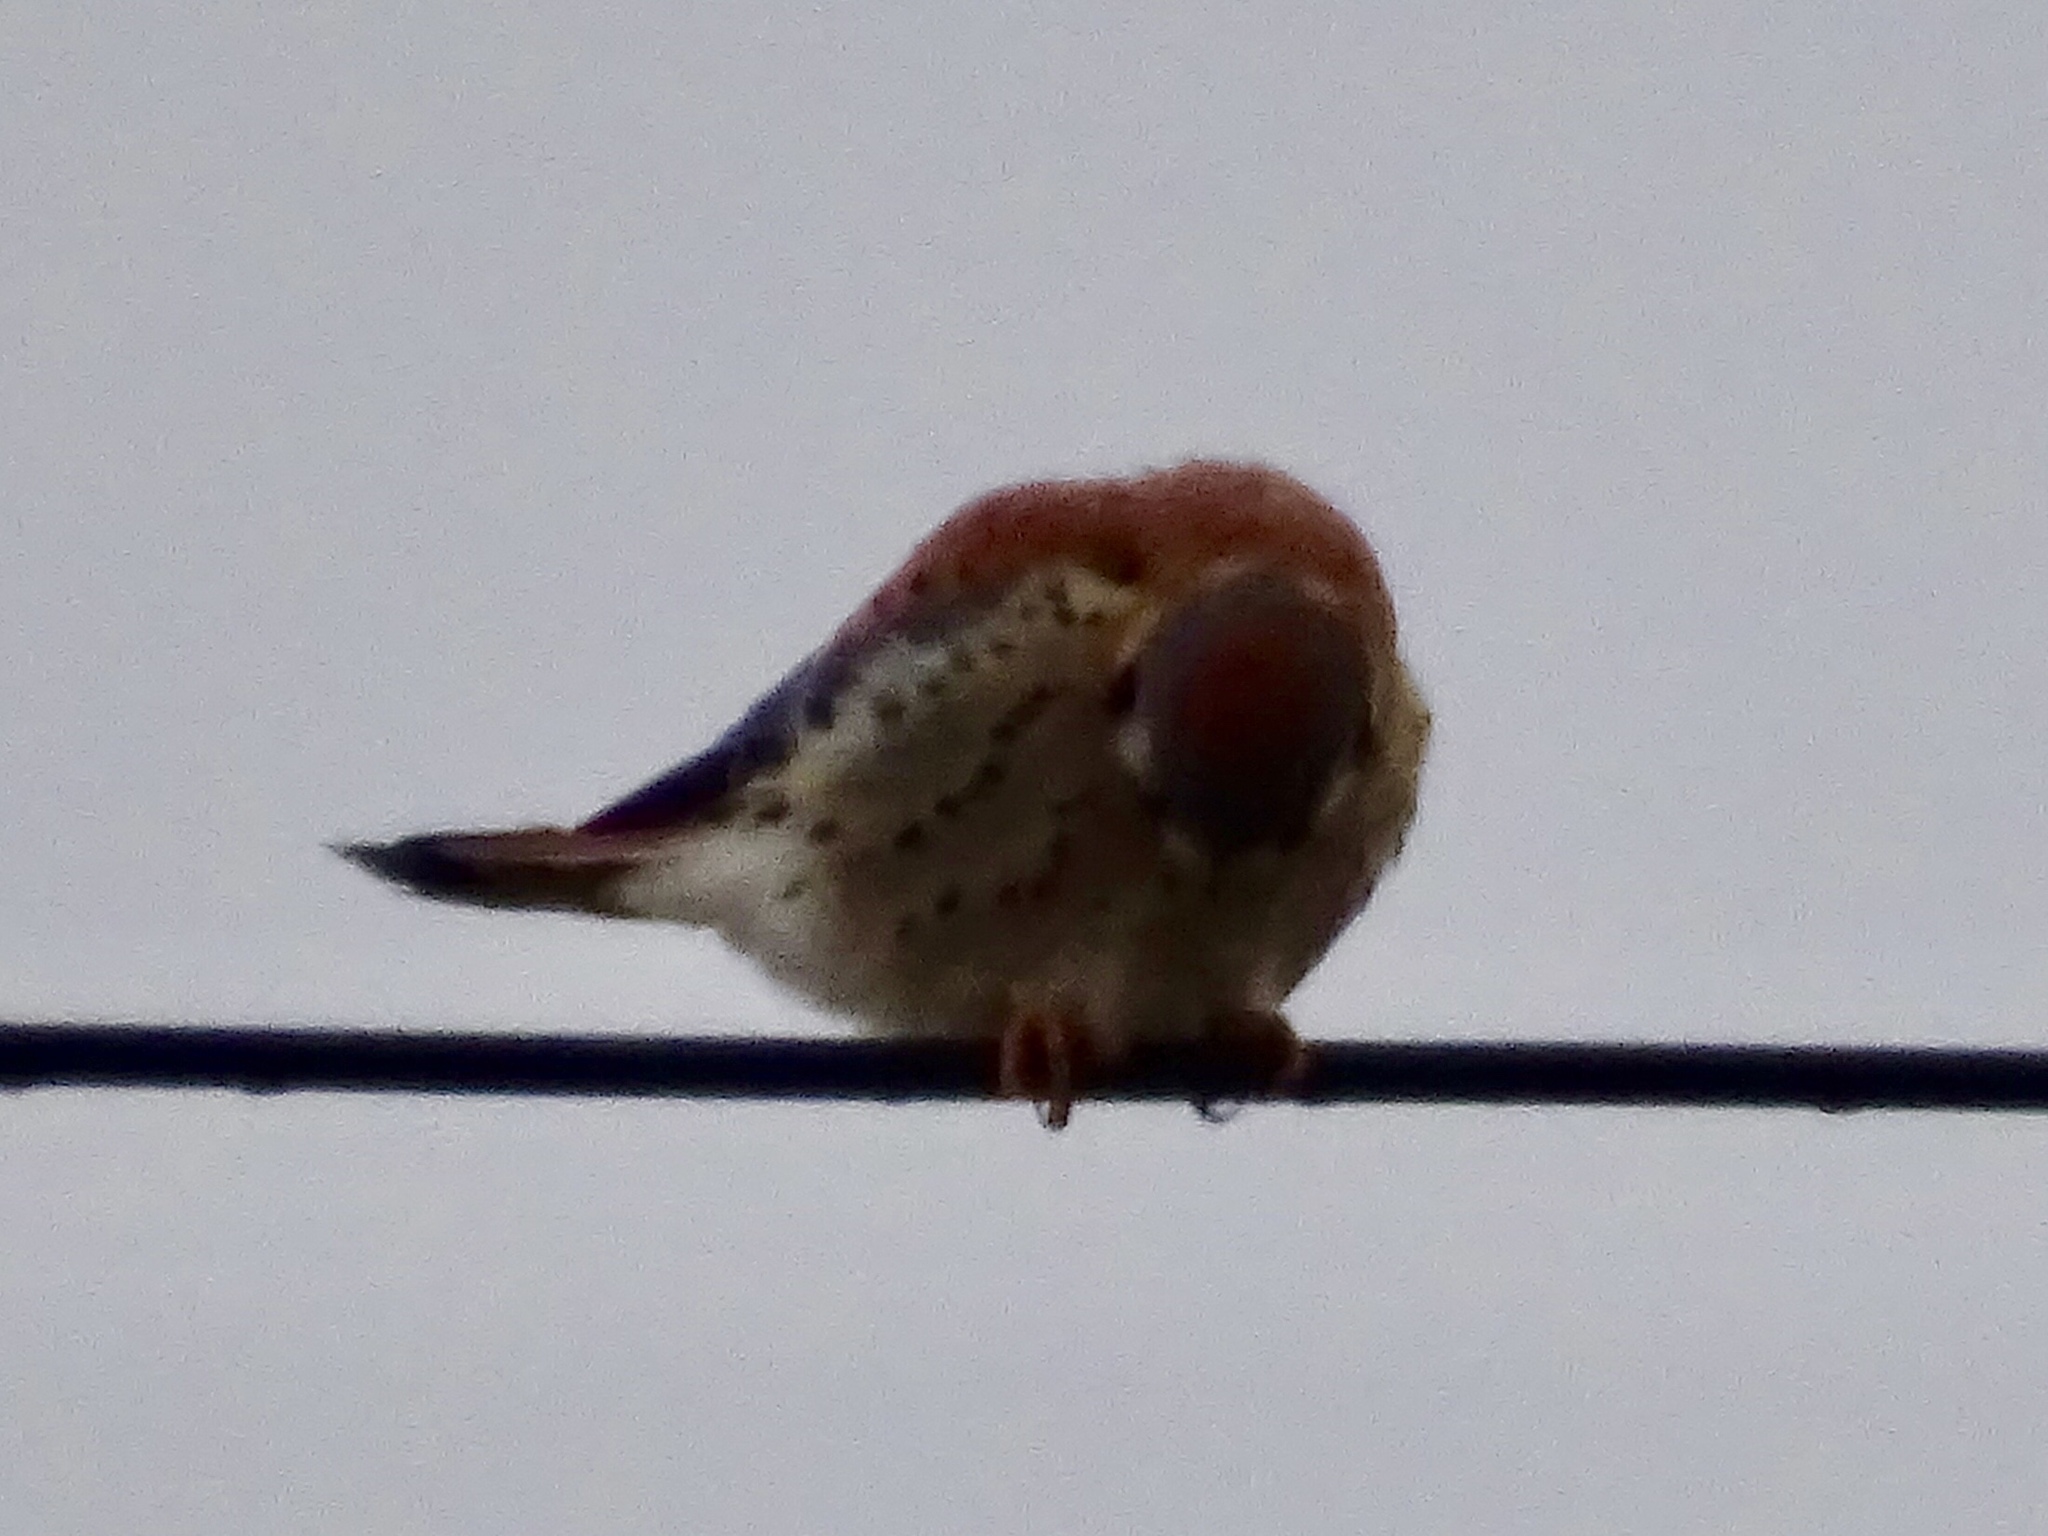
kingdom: Animalia
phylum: Chordata
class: Aves
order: Falconiformes
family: Falconidae
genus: Falco
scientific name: Falco sparverius
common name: American kestrel
